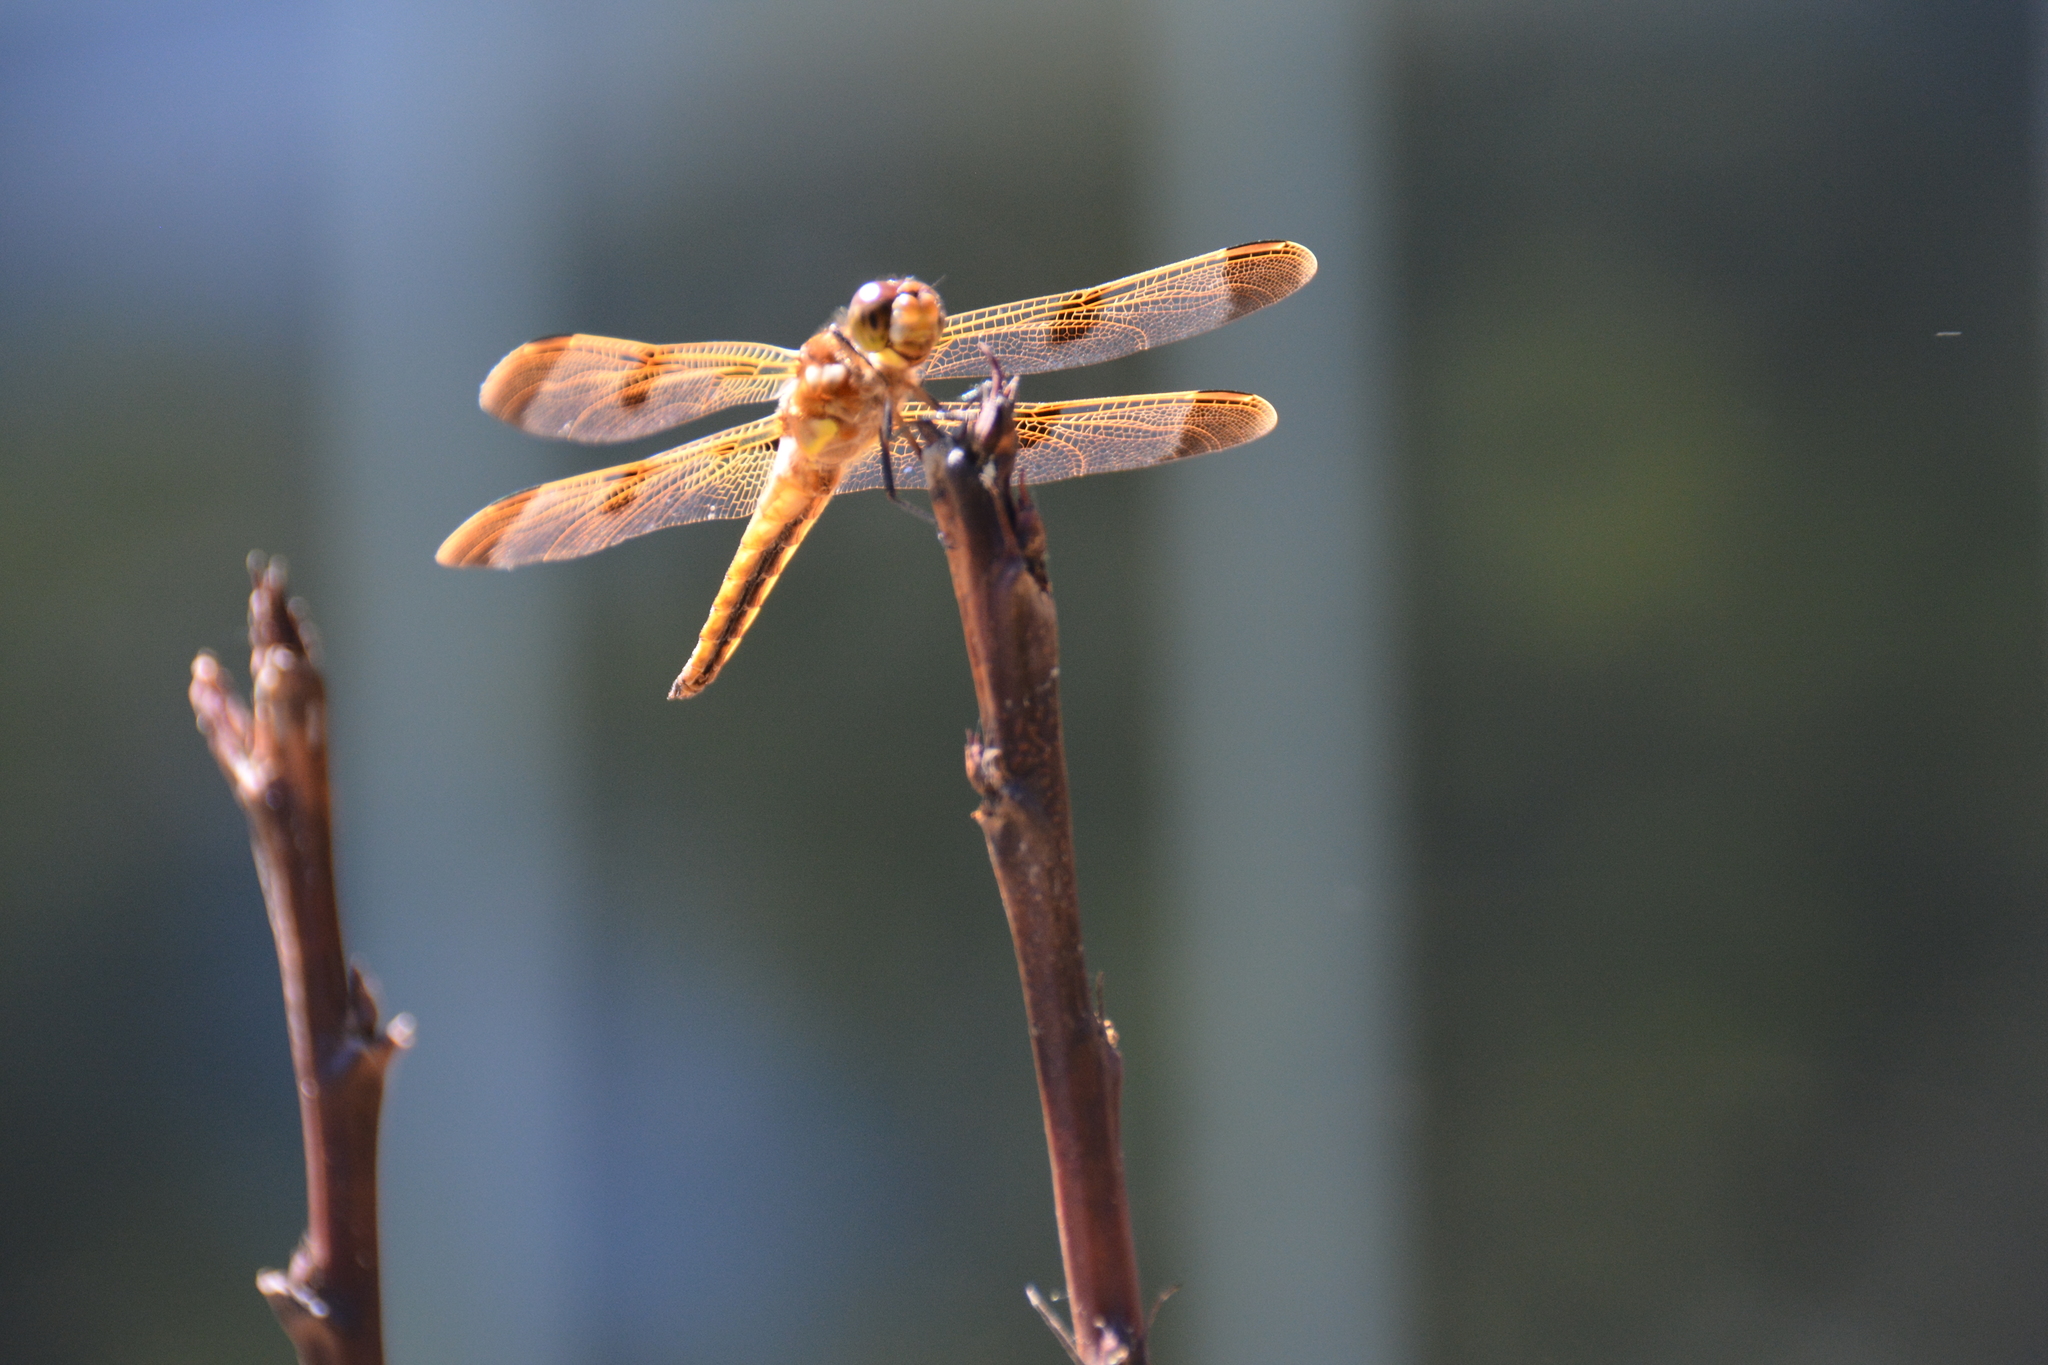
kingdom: Animalia
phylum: Arthropoda
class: Insecta
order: Odonata
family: Libellulidae
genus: Libellula
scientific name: Libellula semifasciata
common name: Painted skimmer
